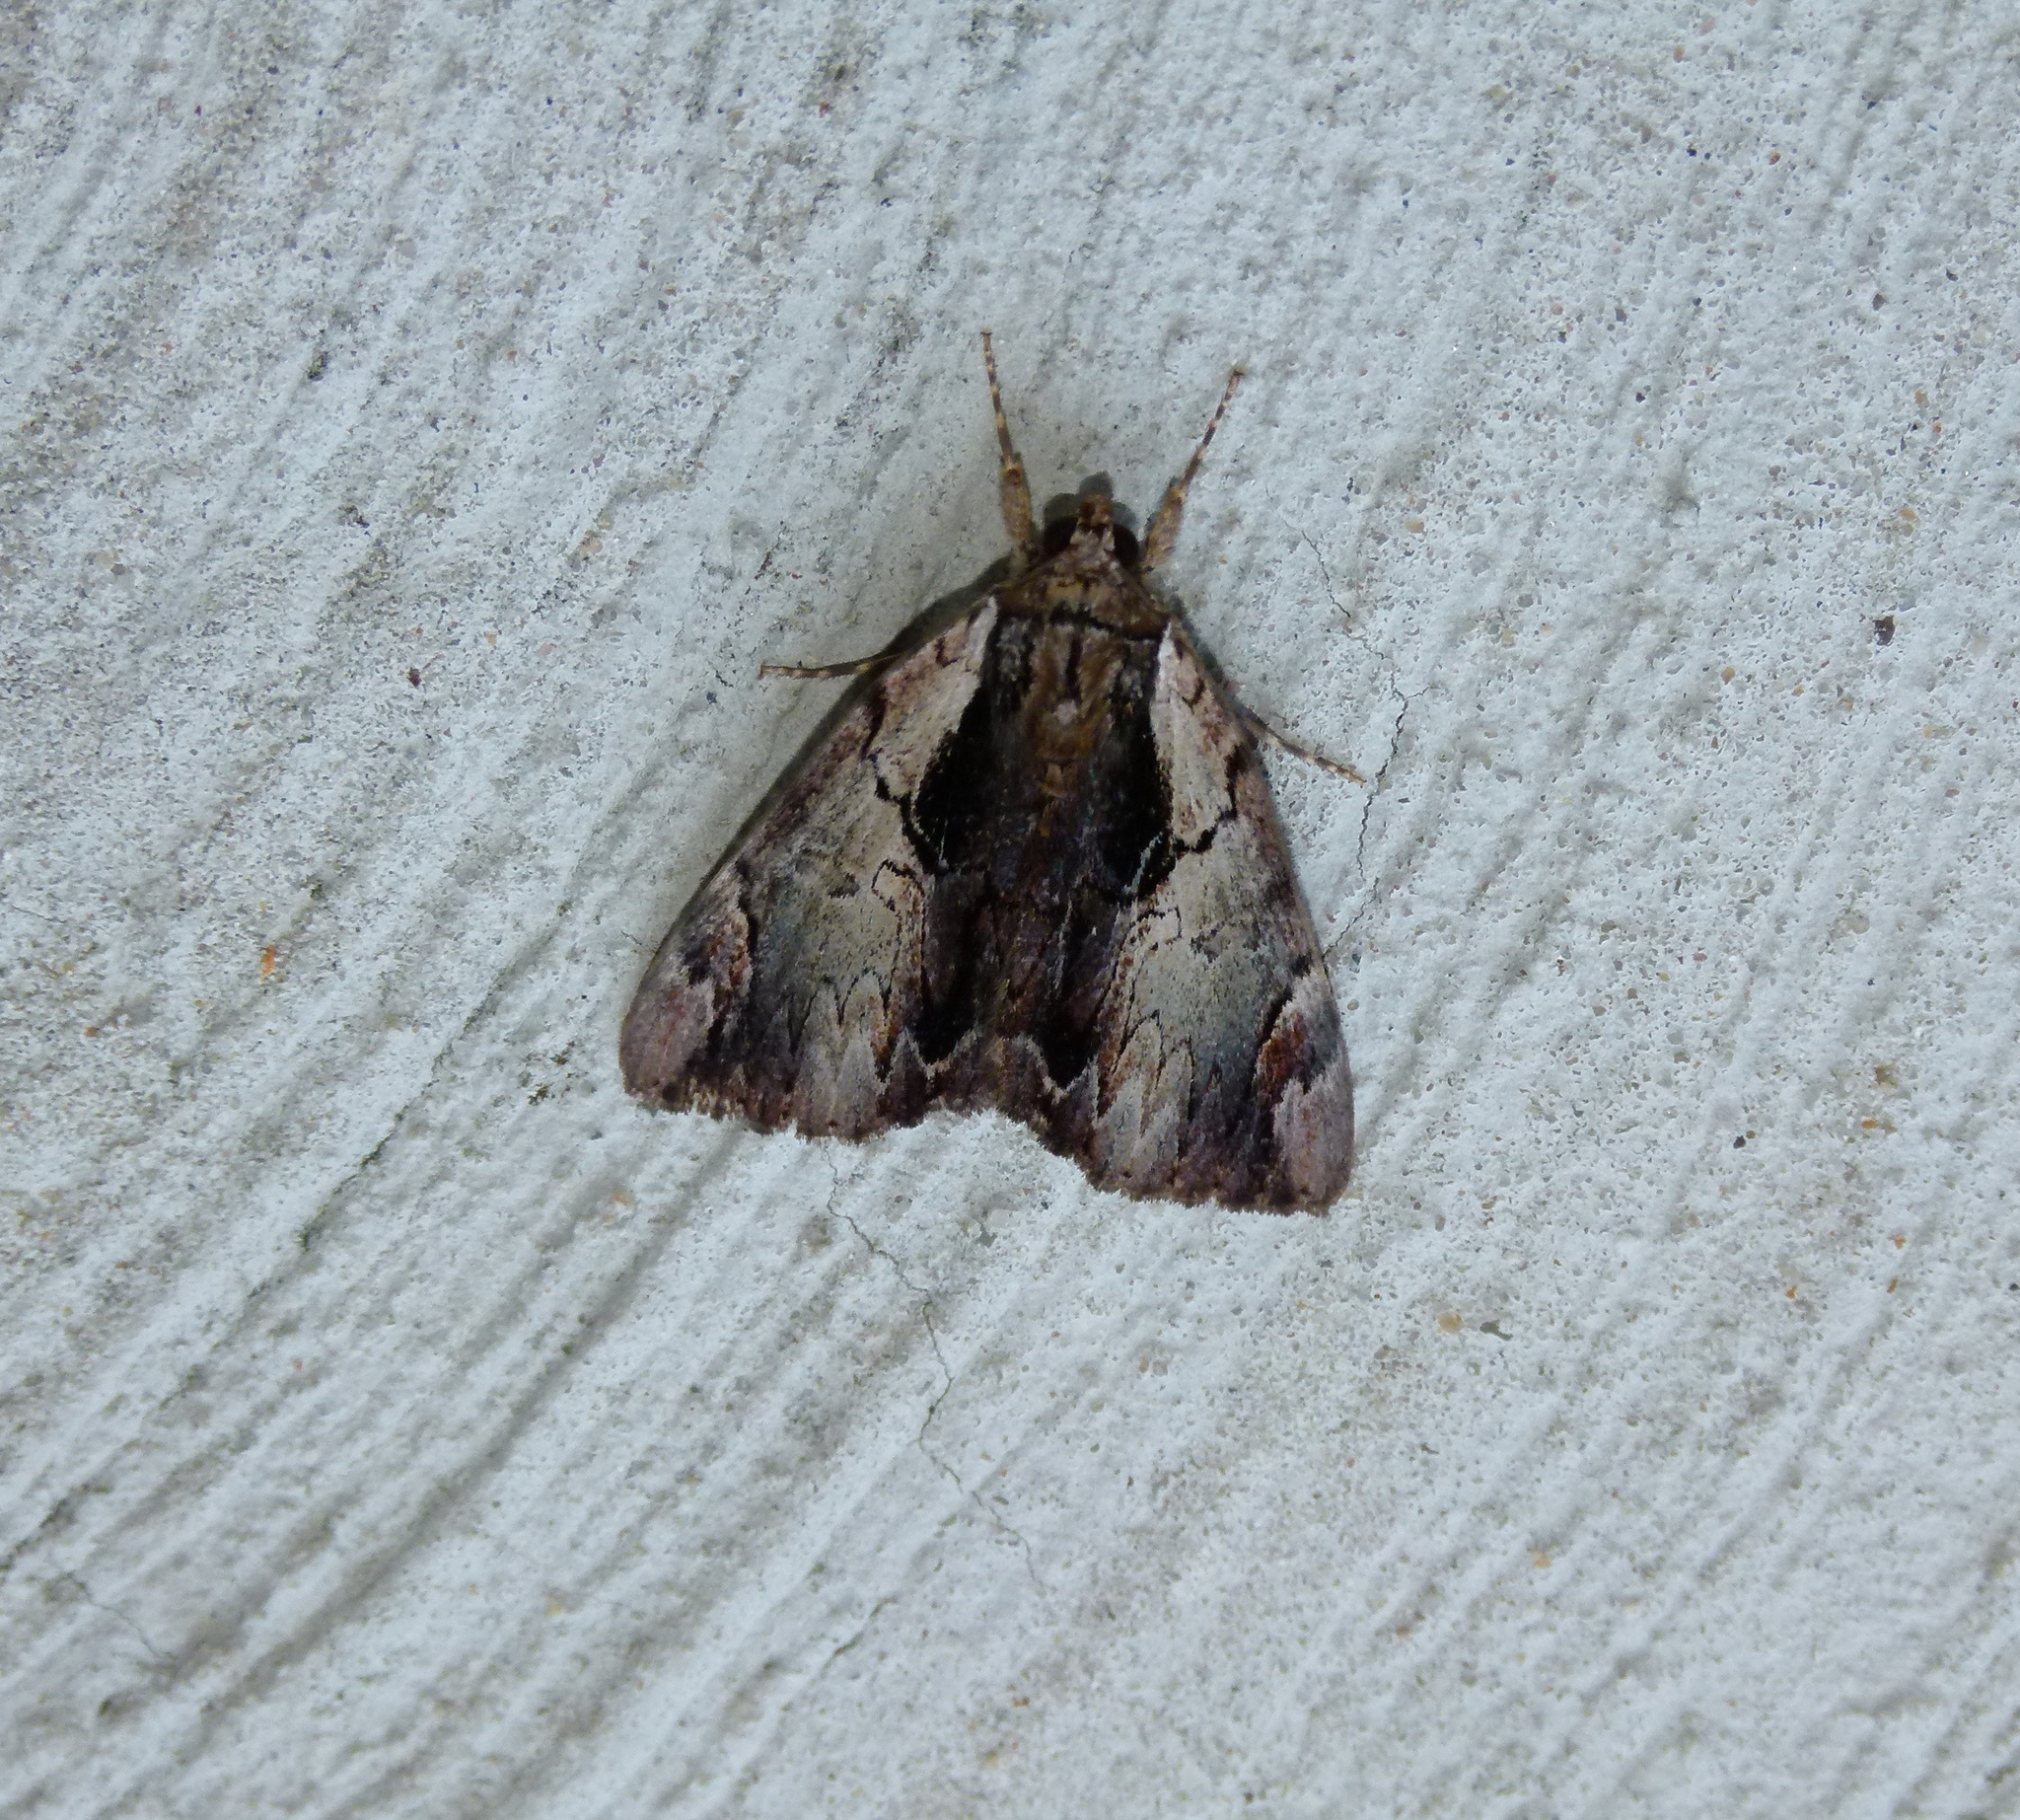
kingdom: Animalia
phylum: Arthropoda
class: Insecta
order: Lepidoptera
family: Erebidae
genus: Catocala
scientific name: Catocala ultronia
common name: Ultronia underwing
